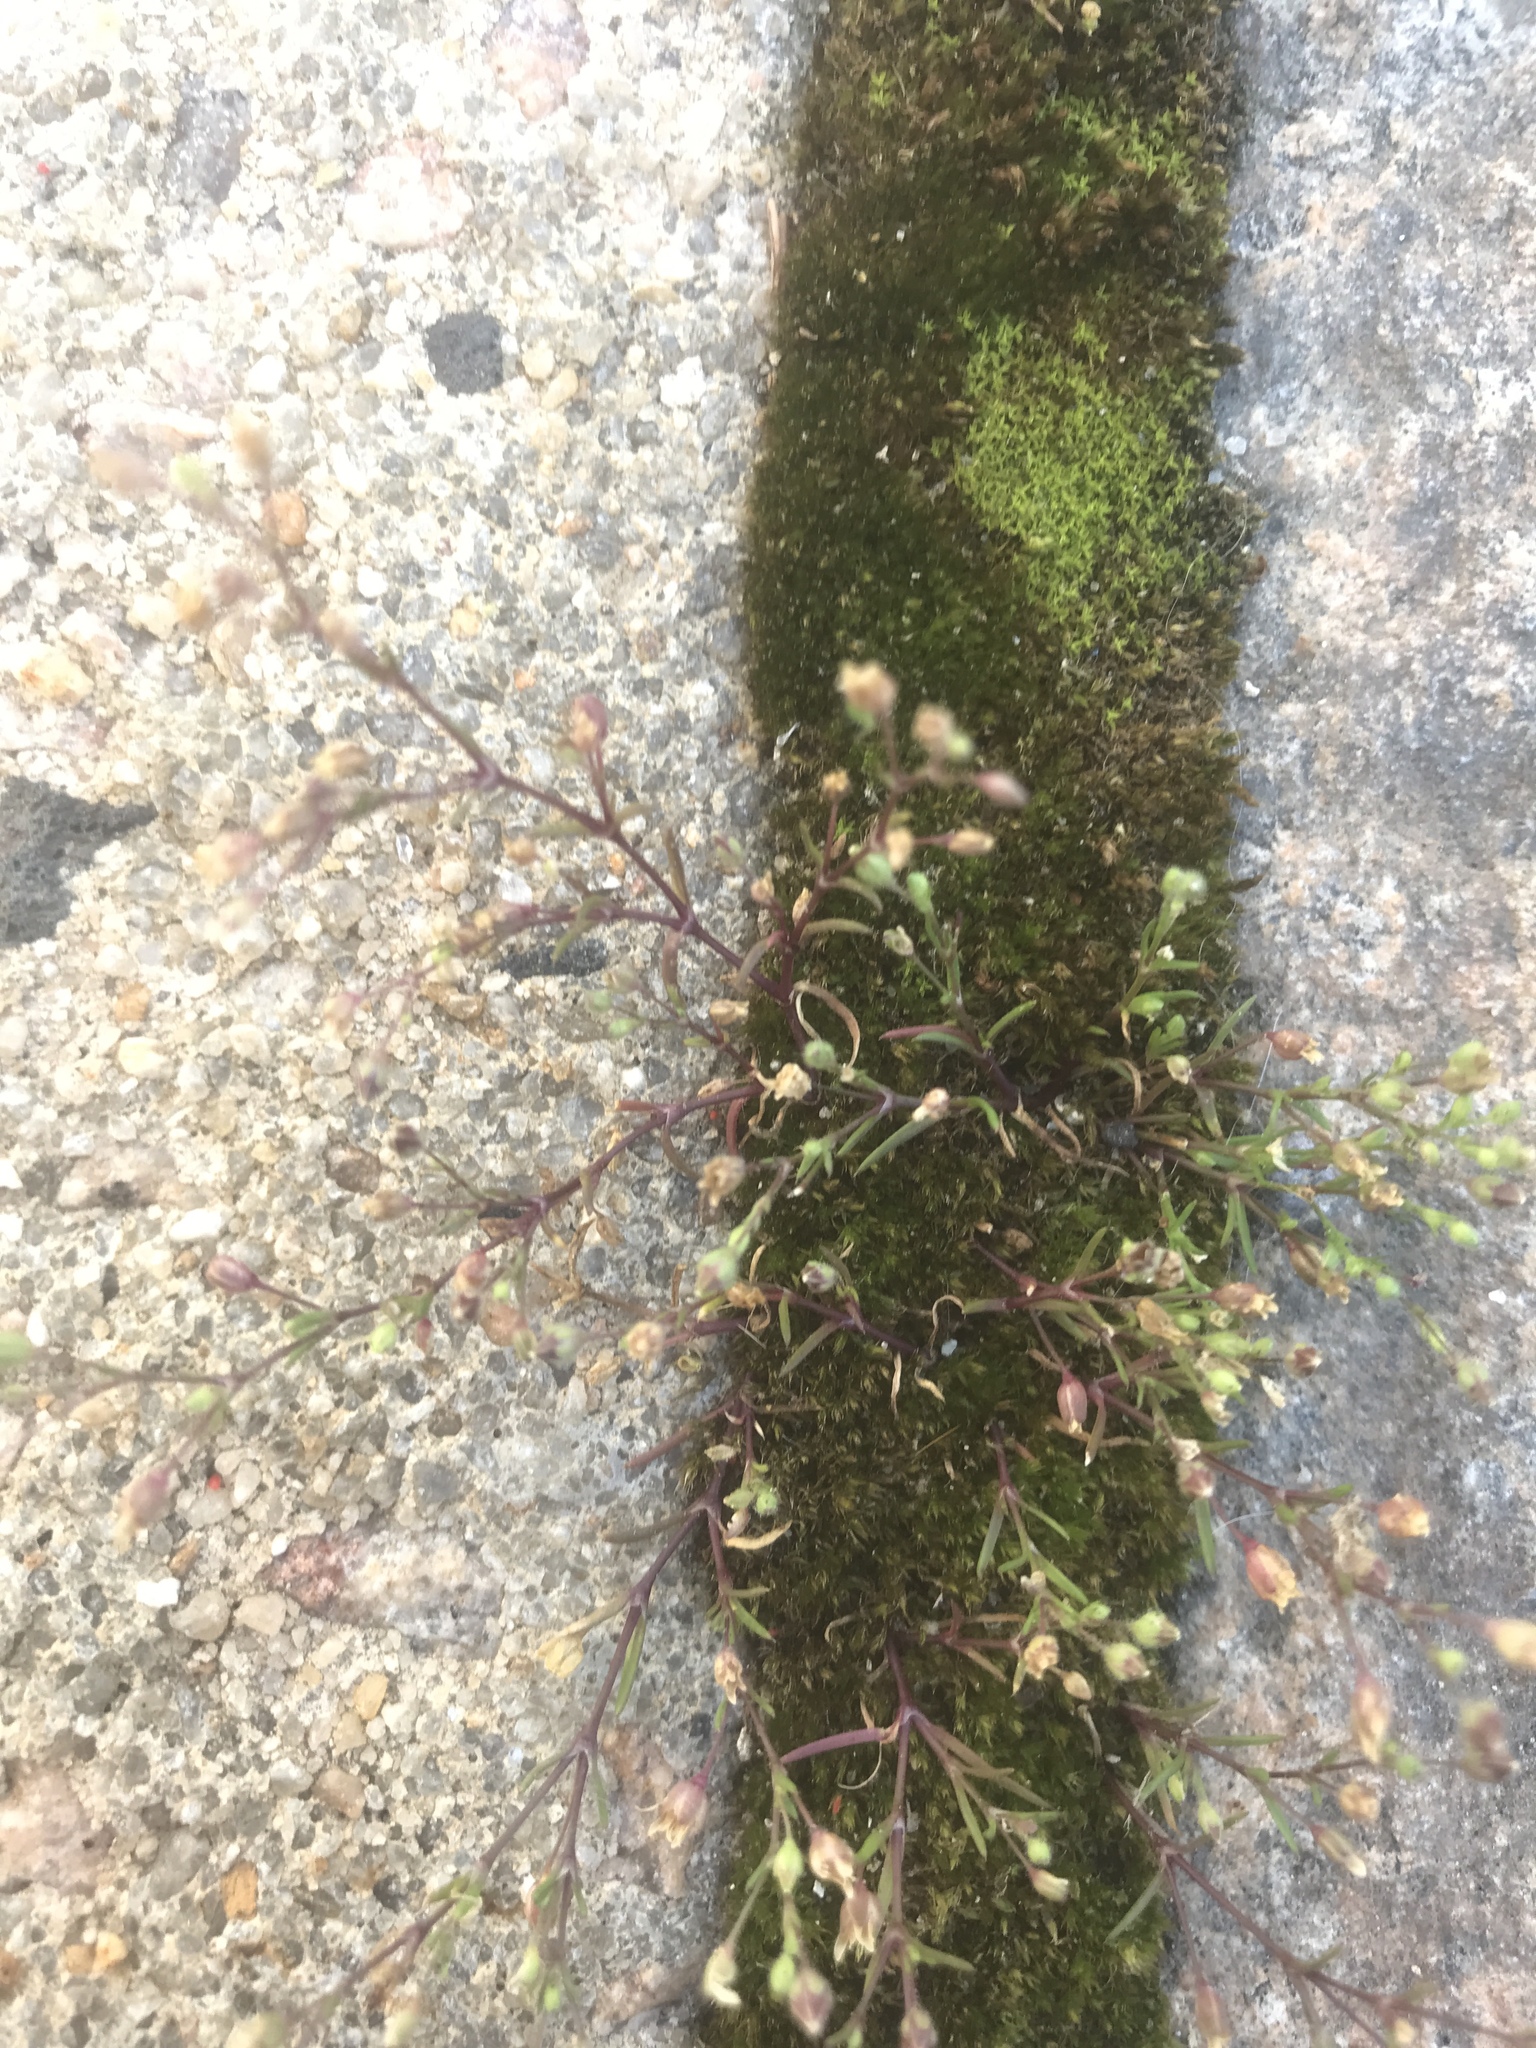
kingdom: Plantae
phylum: Tracheophyta
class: Magnoliopsida
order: Caryophyllales
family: Caryophyllaceae
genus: Sagina
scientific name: Sagina decumbens
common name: Decumbent pearlwort
